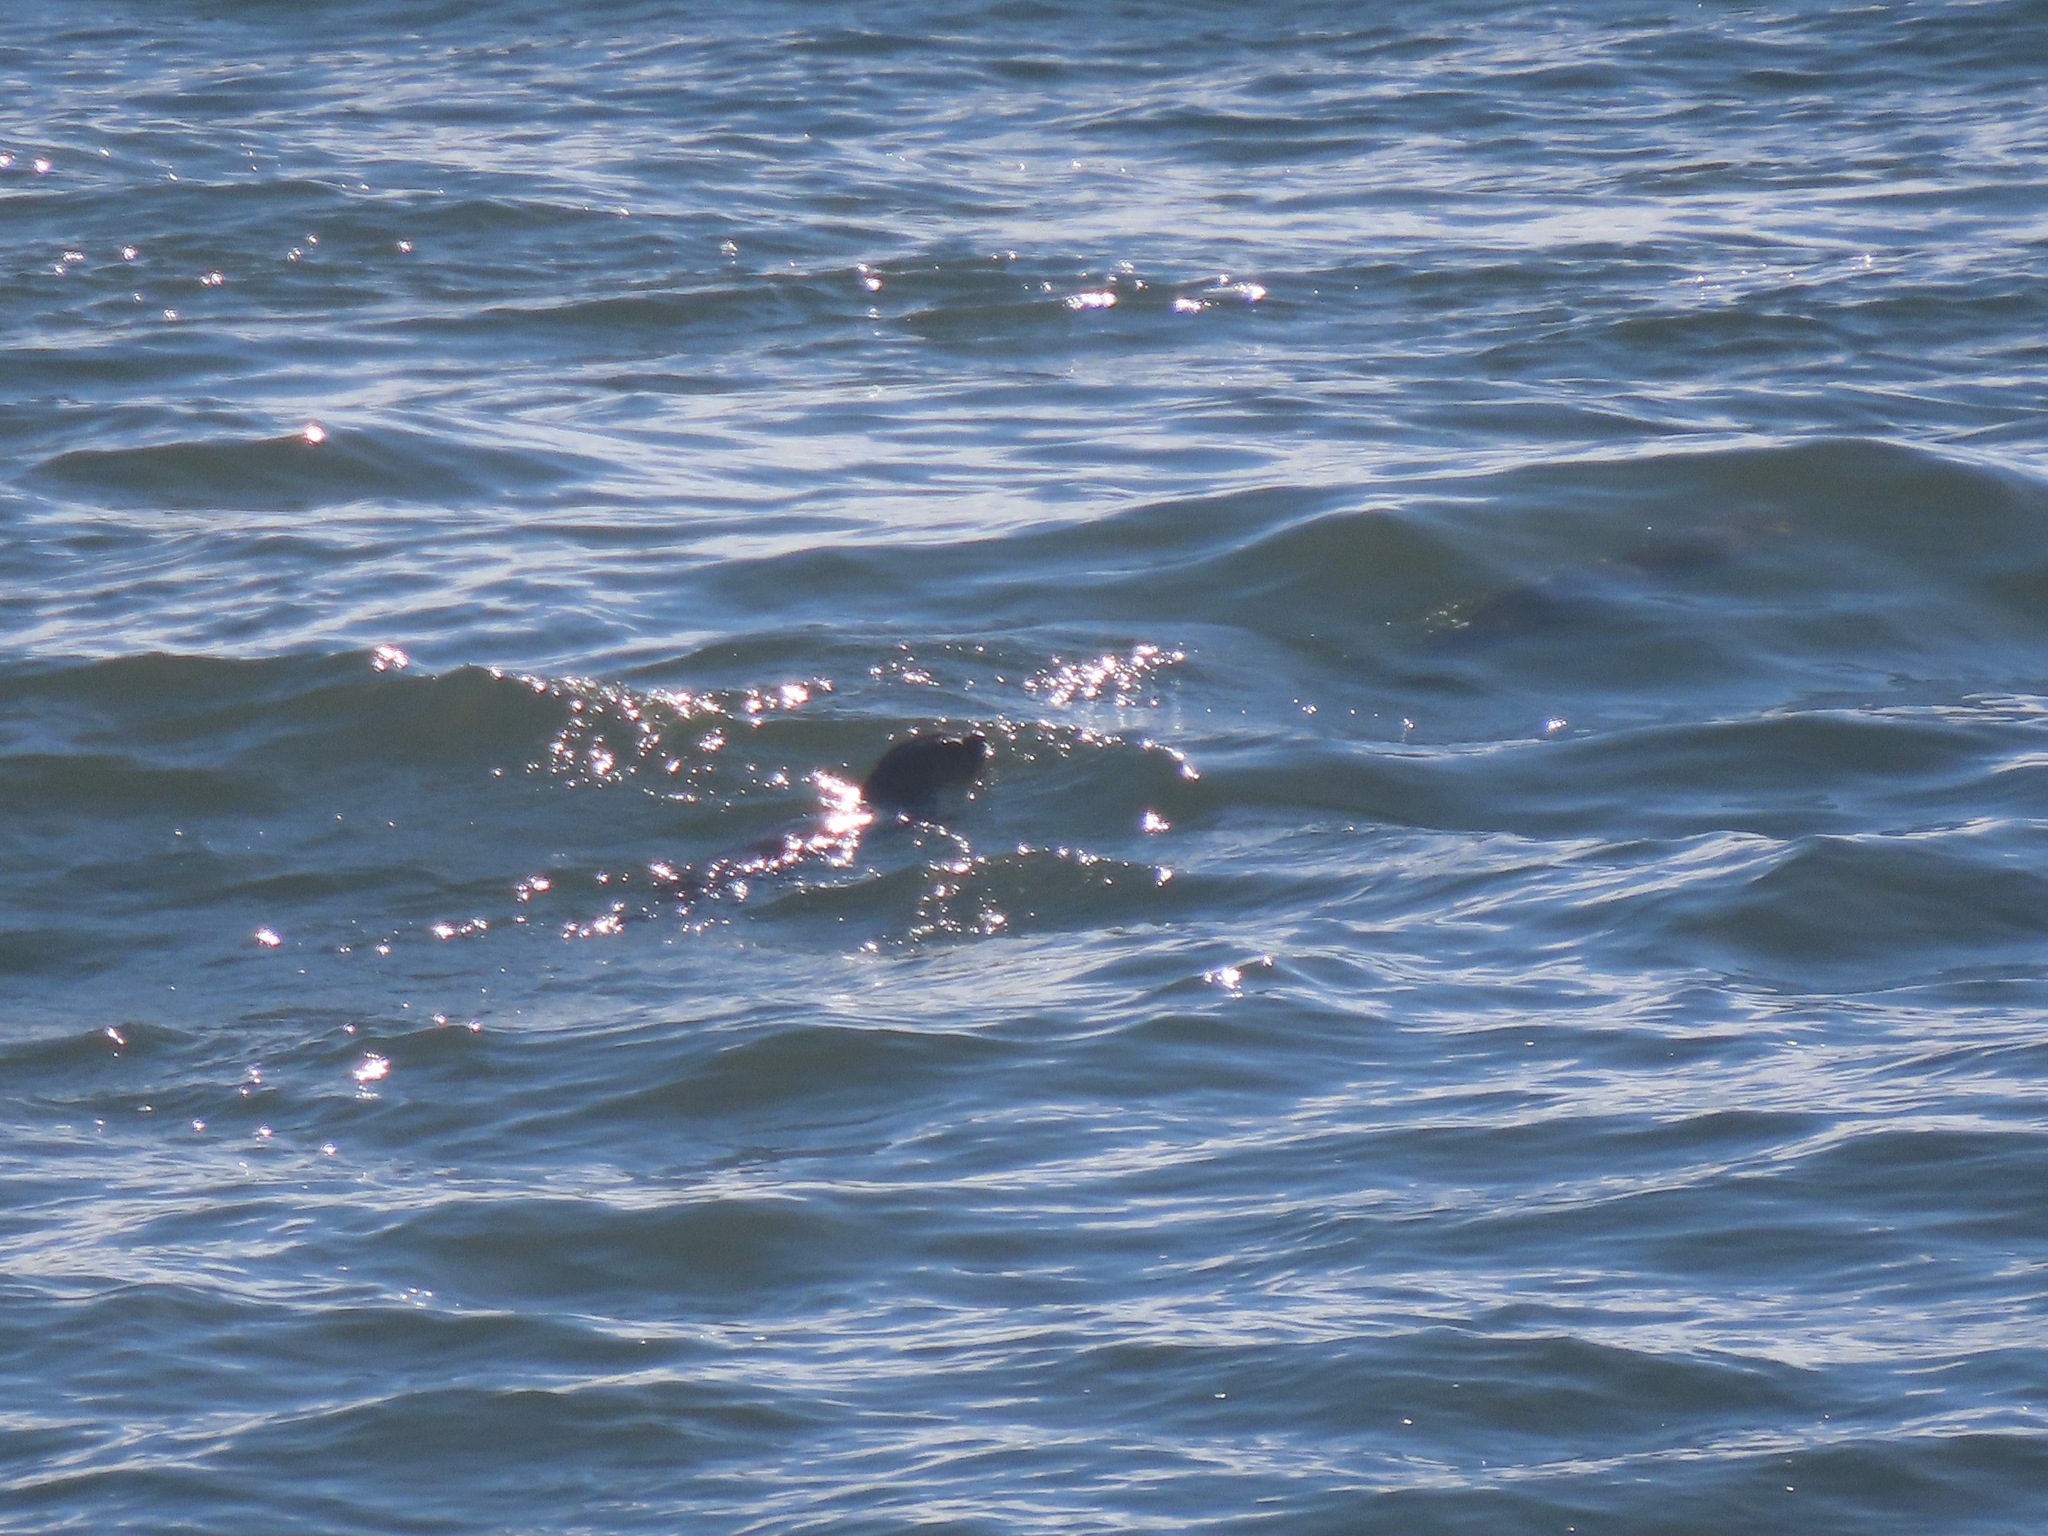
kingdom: Animalia
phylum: Chordata
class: Mammalia
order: Carnivora
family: Mustelidae
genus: Lontra
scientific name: Lontra canadensis
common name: North american river otter
